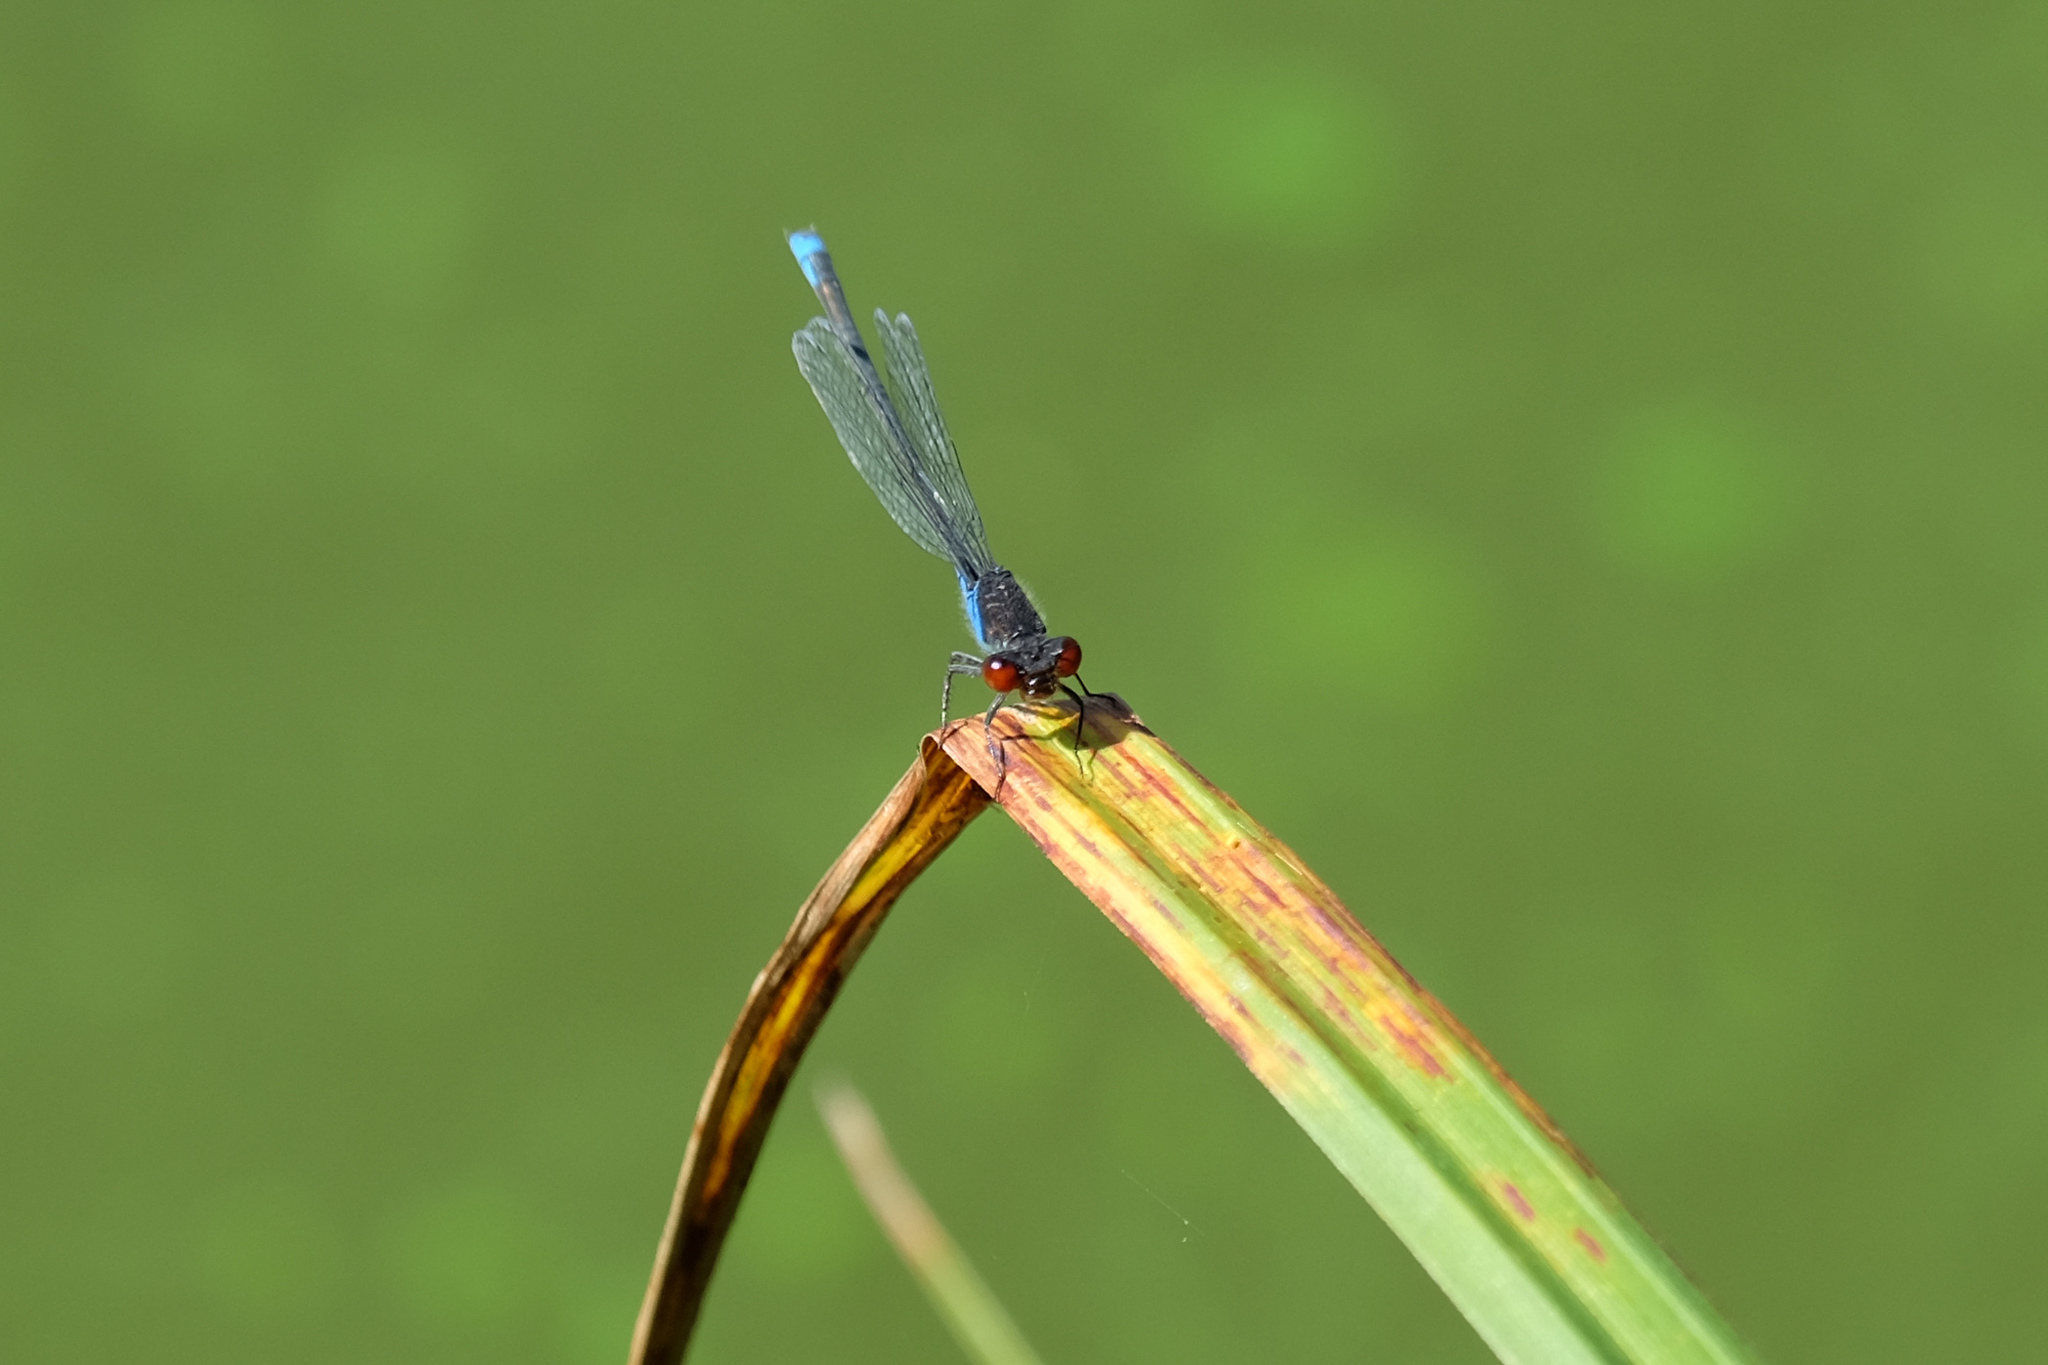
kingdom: Animalia
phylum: Arthropoda
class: Insecta
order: Odonata
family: Coenagrionidae
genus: Erythromma
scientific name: Erythromma viridulum
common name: Small red-eyed damselfly
